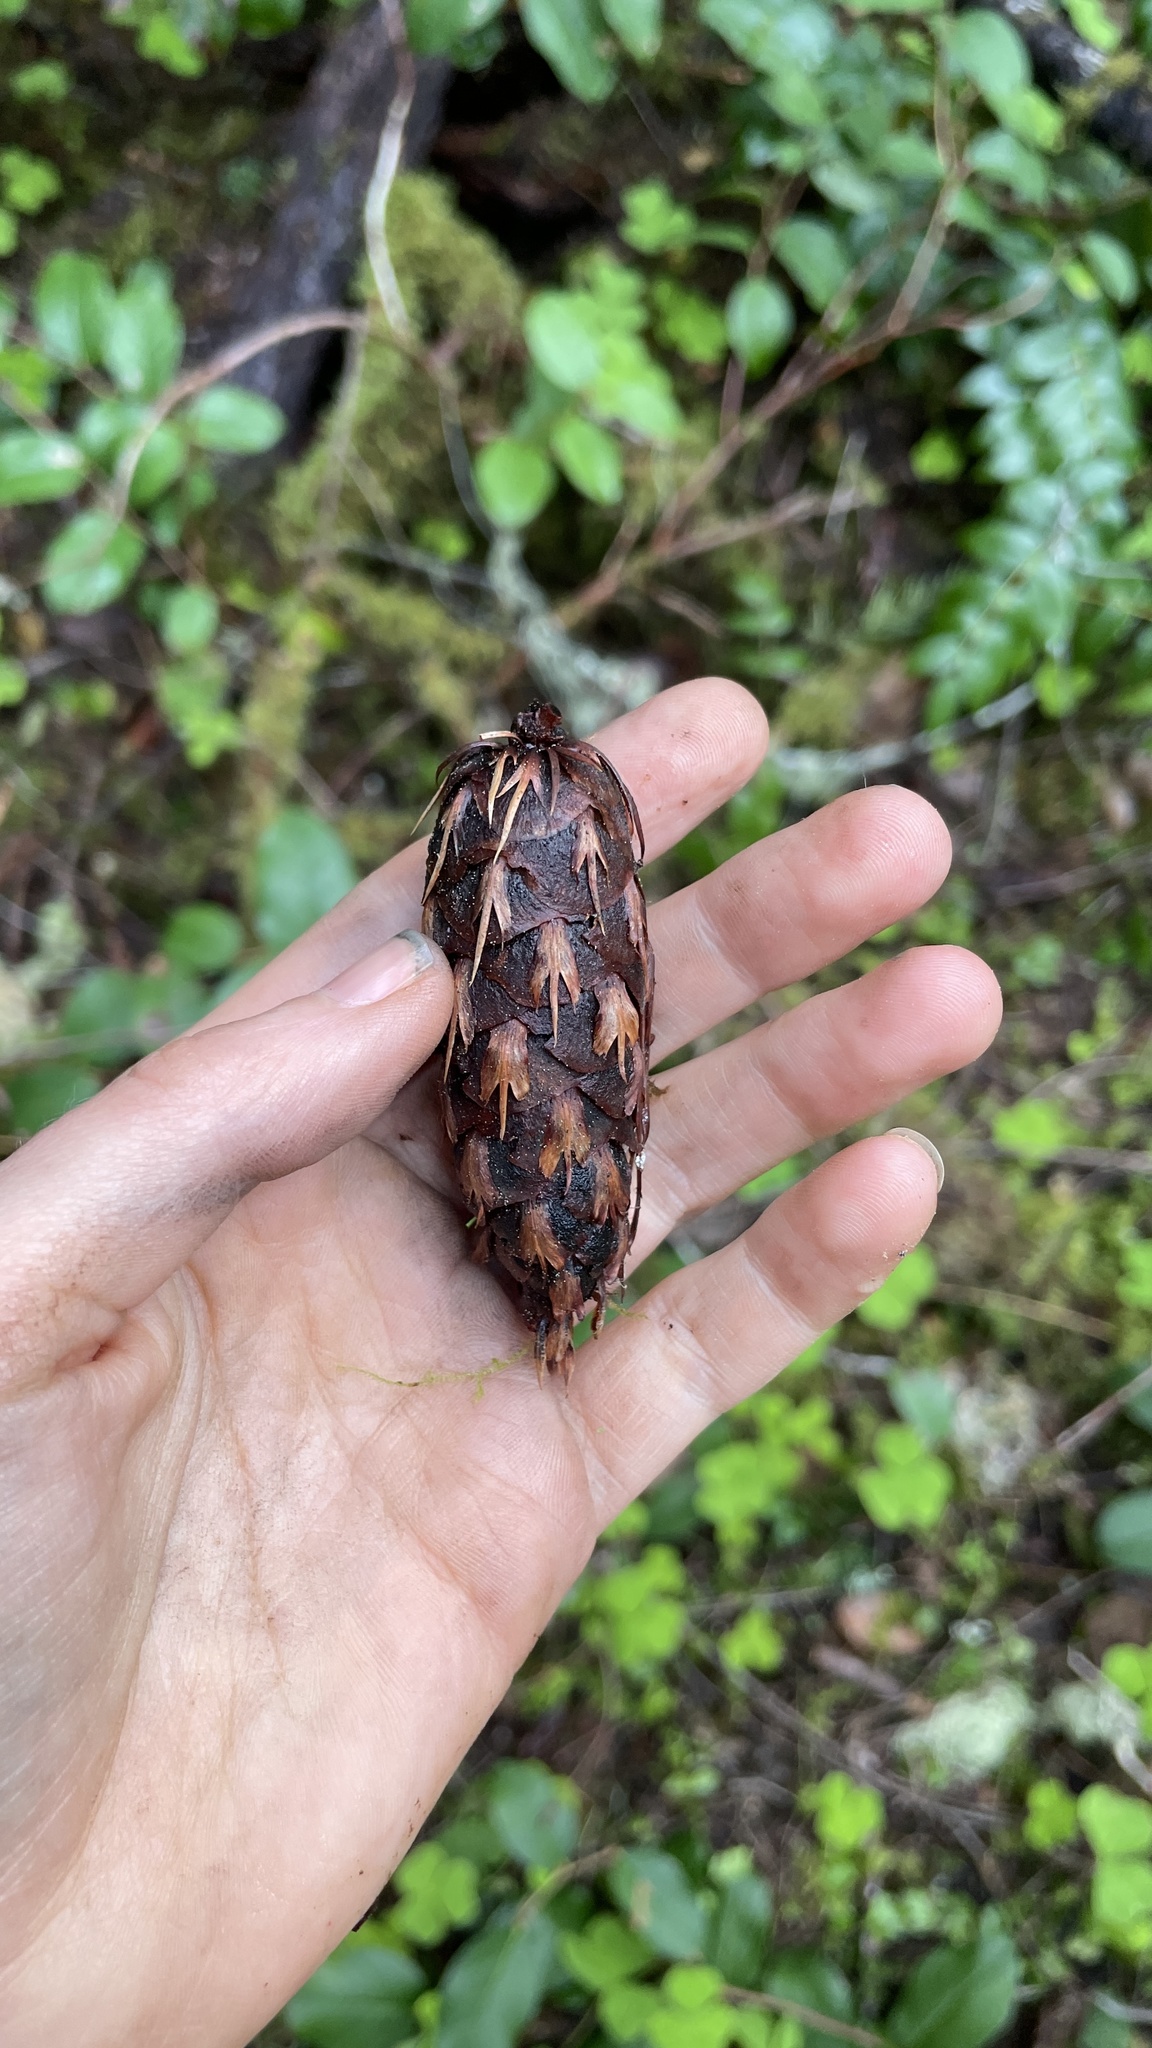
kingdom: Plantae
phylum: Tracheophyta
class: Pinopsida
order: Pinales
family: Pinaceae
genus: Pseudotsuga
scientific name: Pseudotsuga menziesii
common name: Douglas fir
